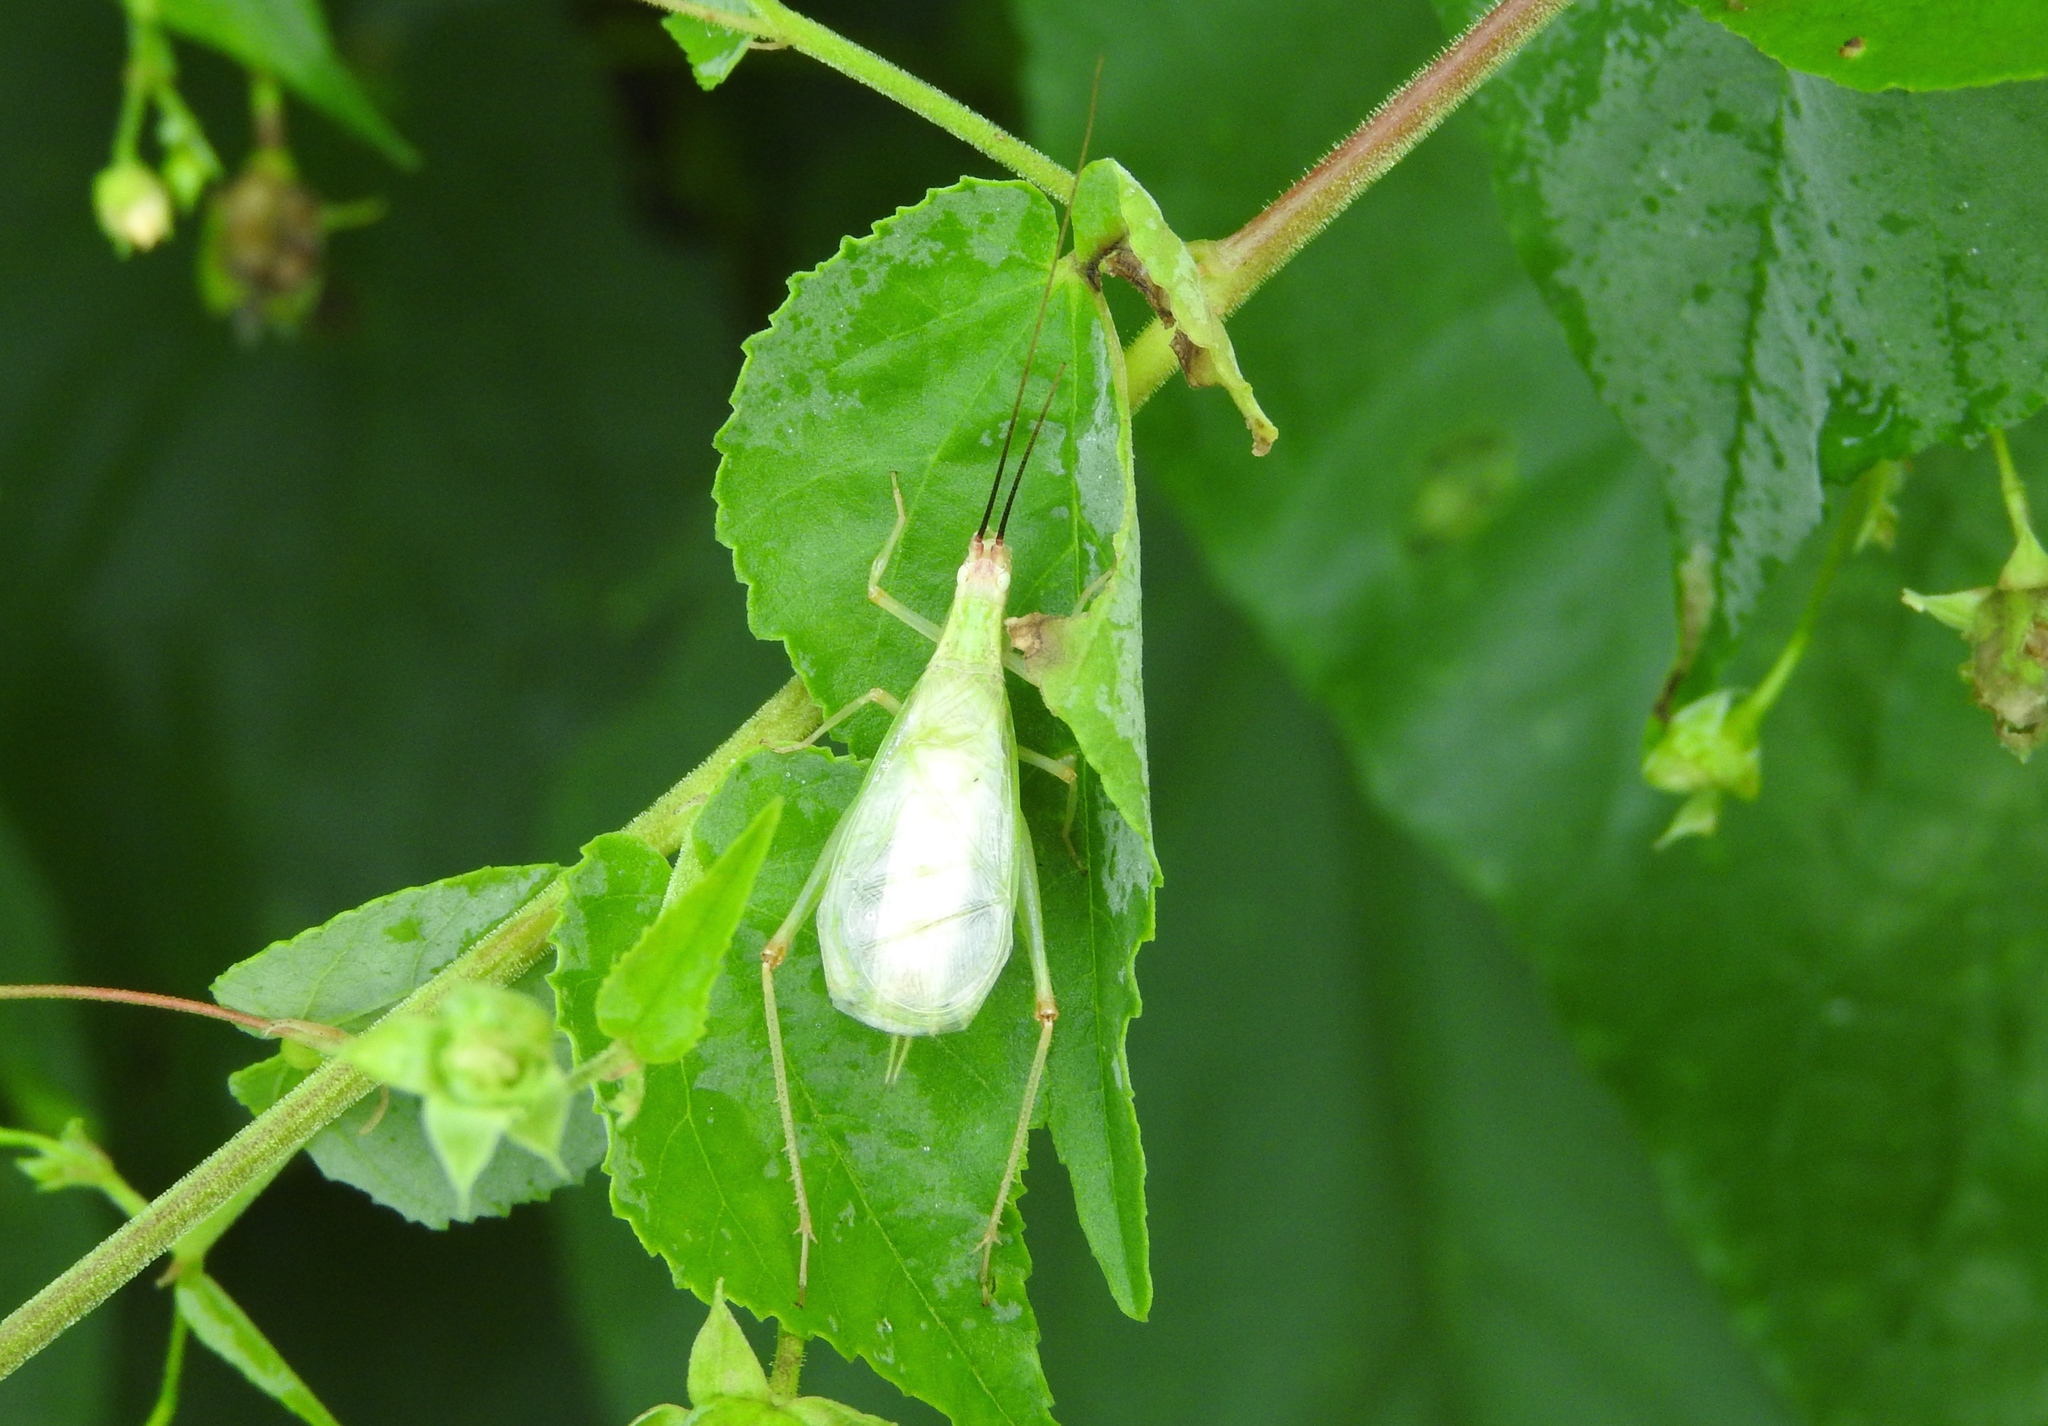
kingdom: Animalia
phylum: Arthropoda
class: Insecta
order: Orthoptera
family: Gryllidae
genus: Oecanthus
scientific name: Oecanthus varicornis
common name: Different-horned tree cricket
